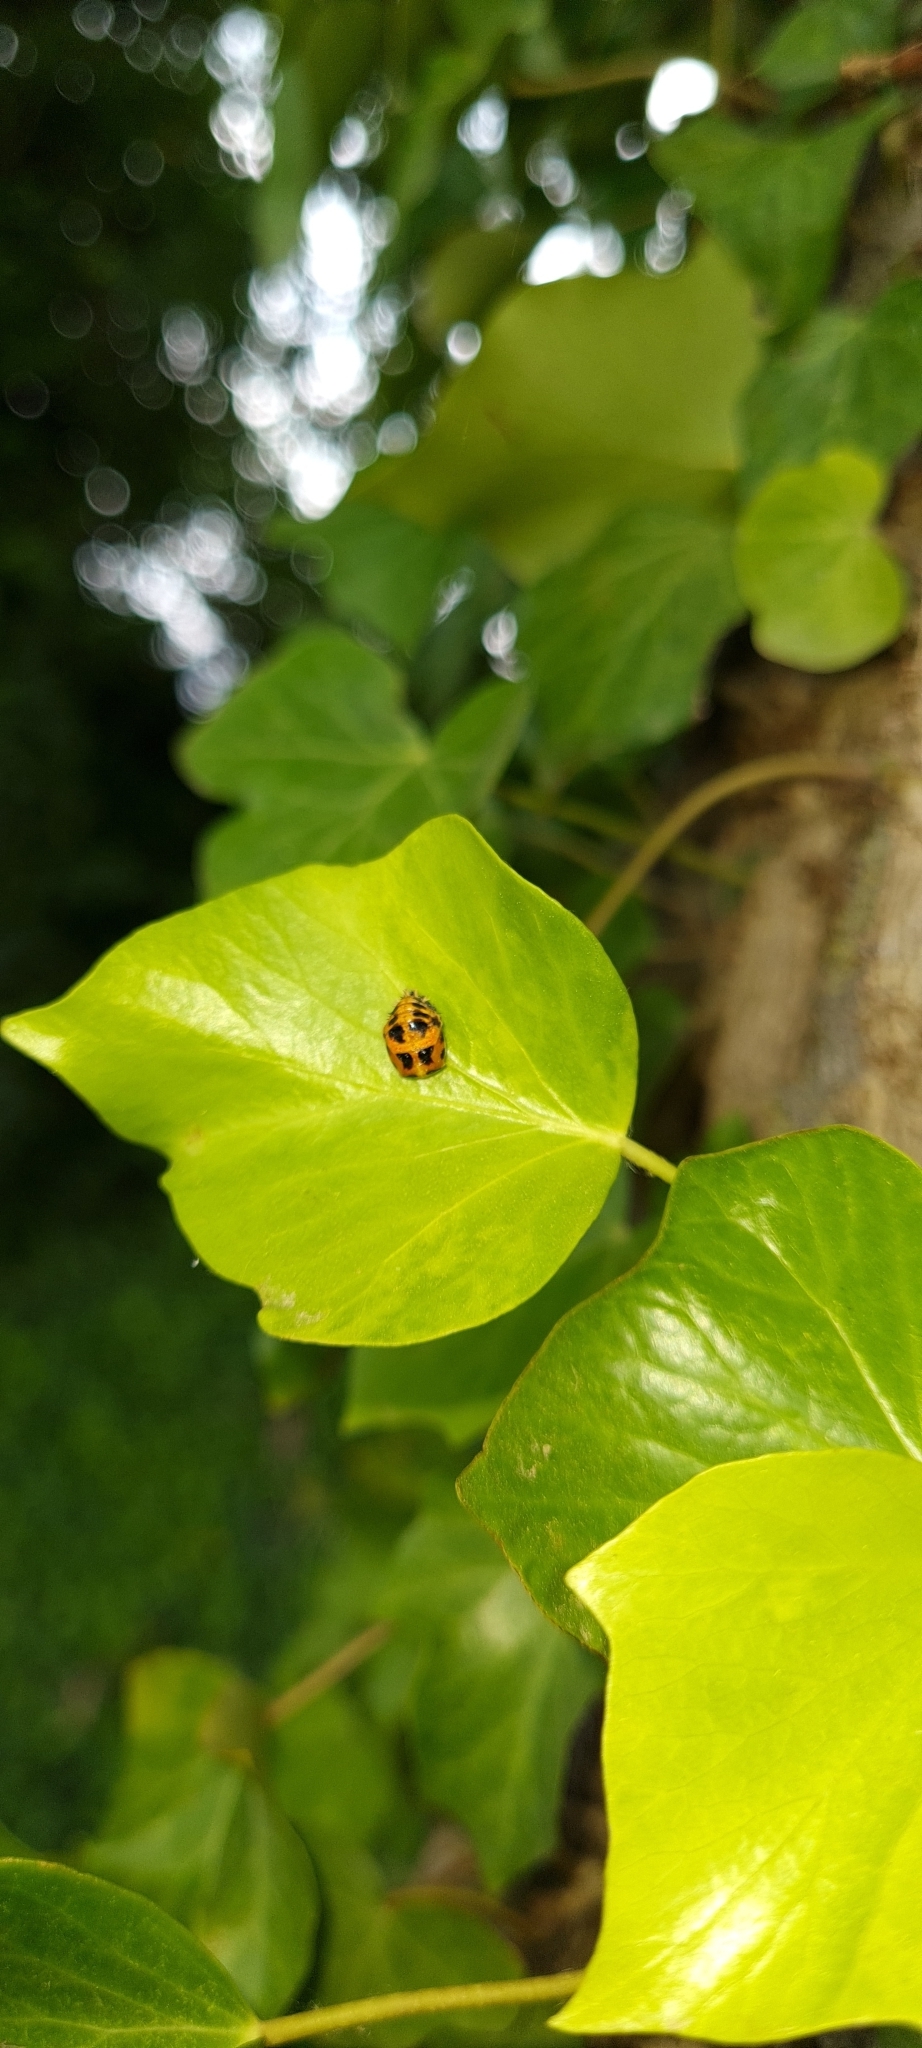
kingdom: Animalia
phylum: Arthropoda
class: Insecta
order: Coleoptera
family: Coccinellidae
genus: Harmonia
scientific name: Harmonia axyridis
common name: Harlequin ladybird
